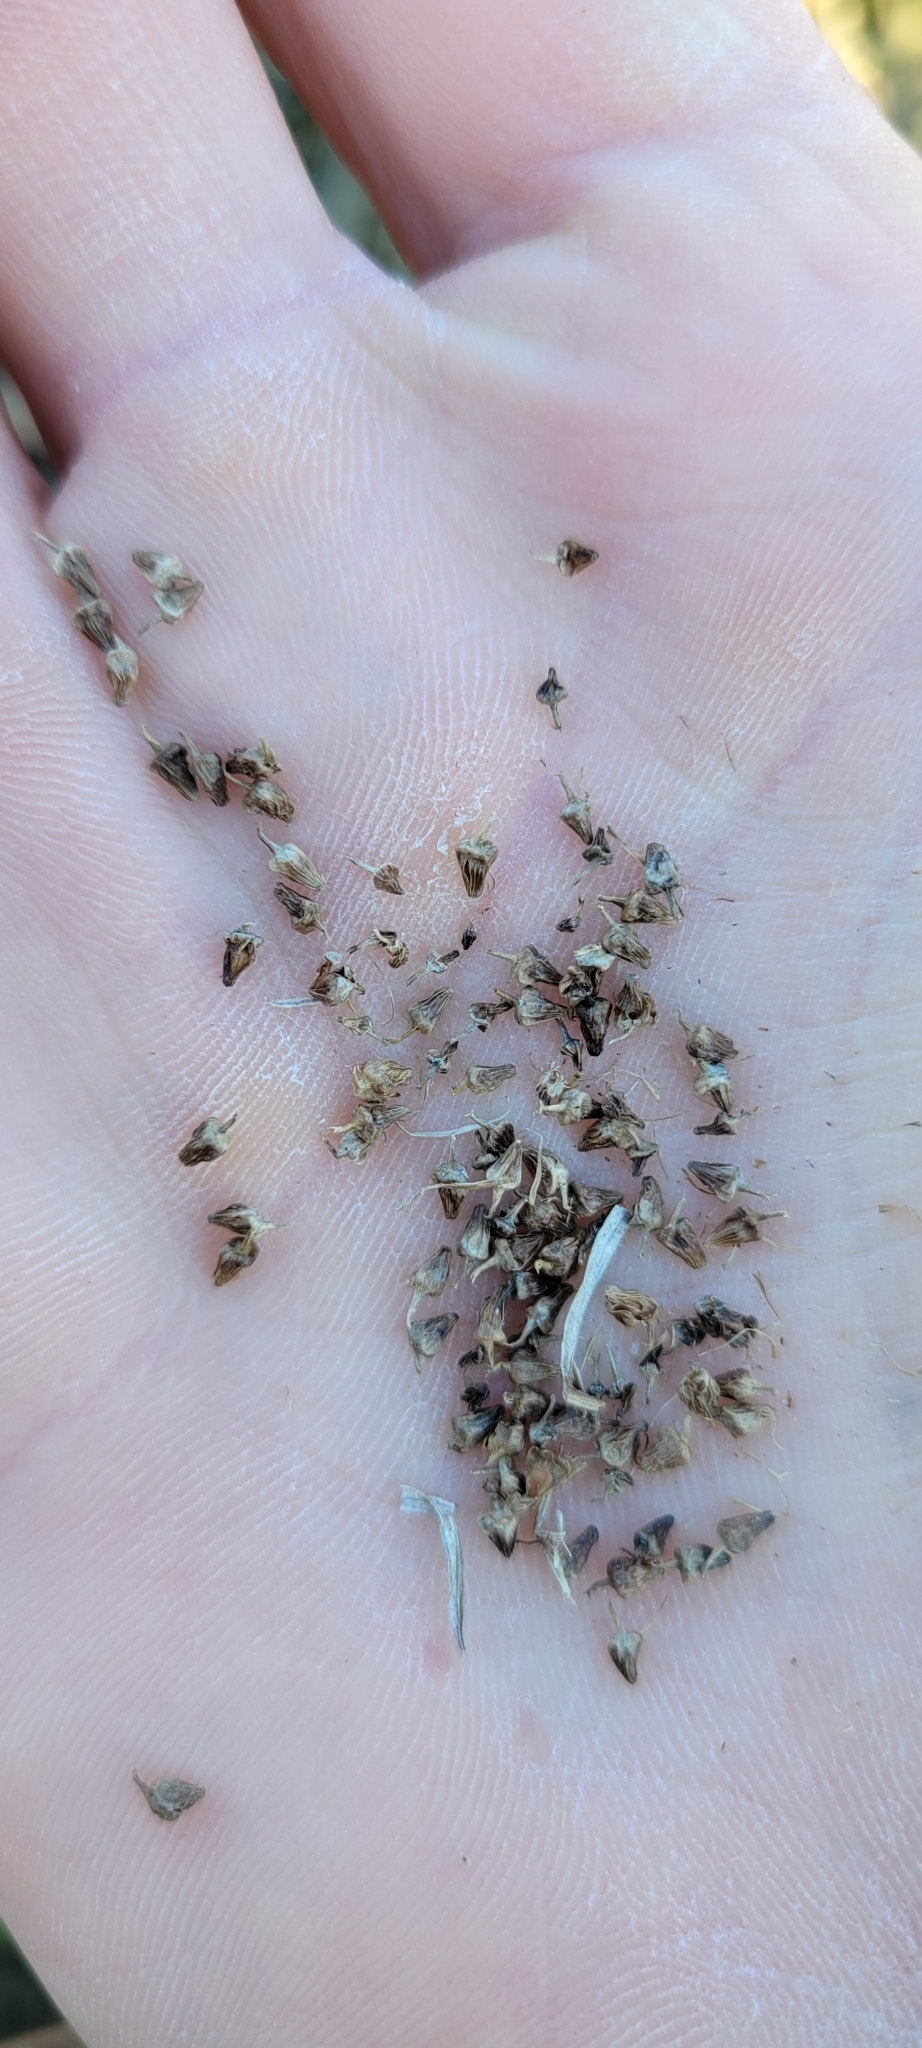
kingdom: Plantae
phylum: Tracheophyta
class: Liliopsida
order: Poales
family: Cyperaceae
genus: Carex
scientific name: Carex frankii
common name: Frank's sedge
